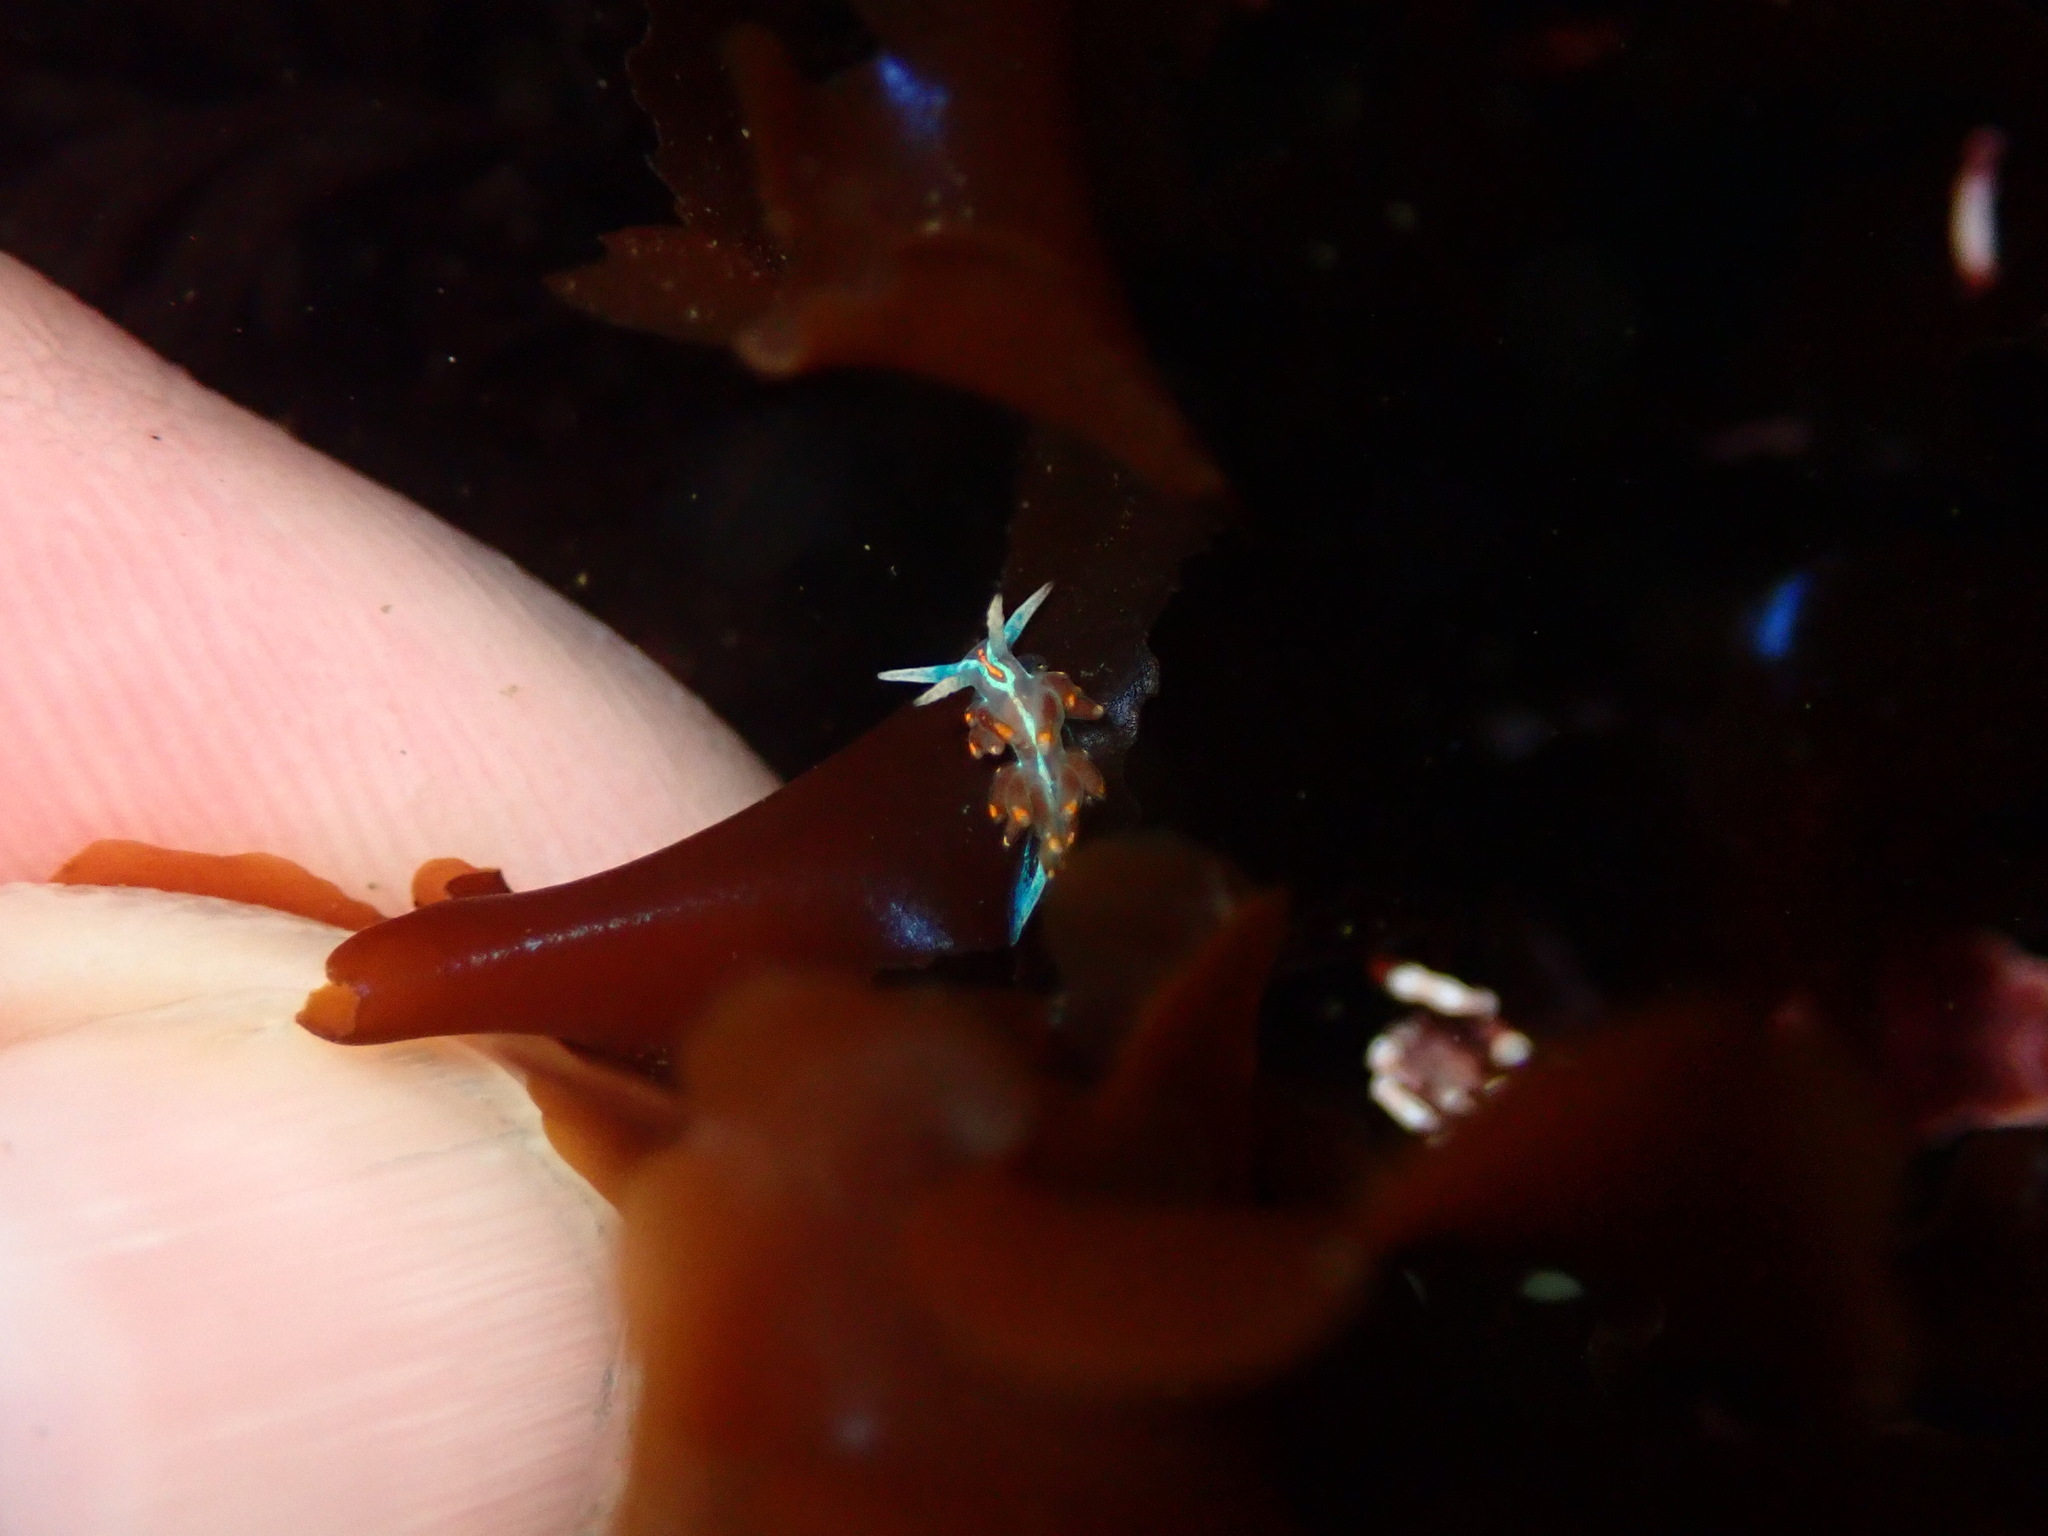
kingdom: Animalia
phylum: Mollusca
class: Gastropoda
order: Nudibranchia
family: Myrrhinidae
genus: Hermissenda
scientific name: Hermissenda opalescens
